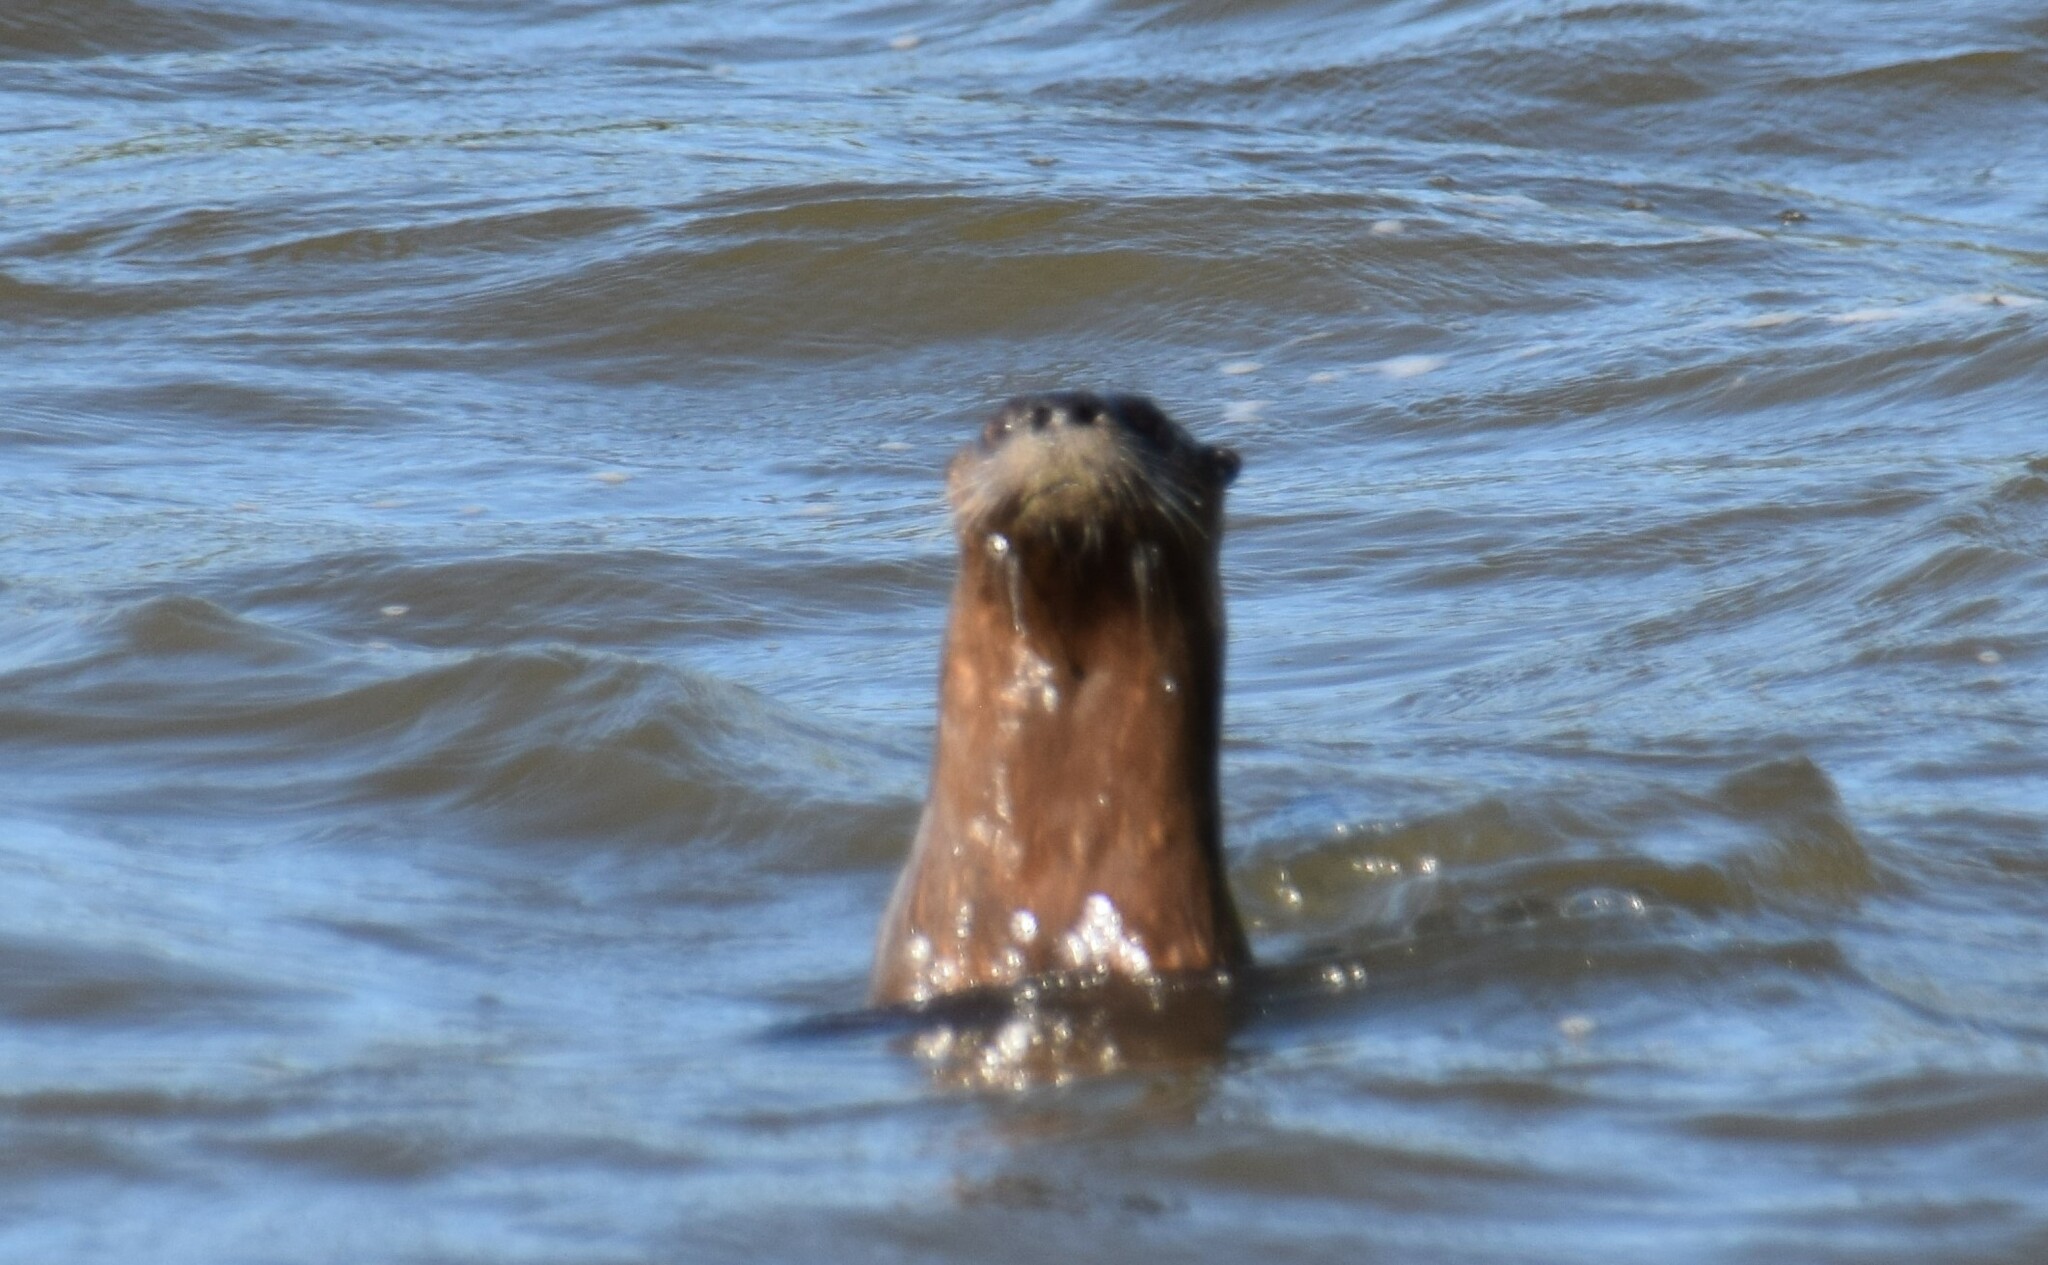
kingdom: Animalia
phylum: Chordata
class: Mammalia
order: Carnivora
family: Mustelidae
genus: Lontra
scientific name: Lontra canadensis
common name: North american river otter
